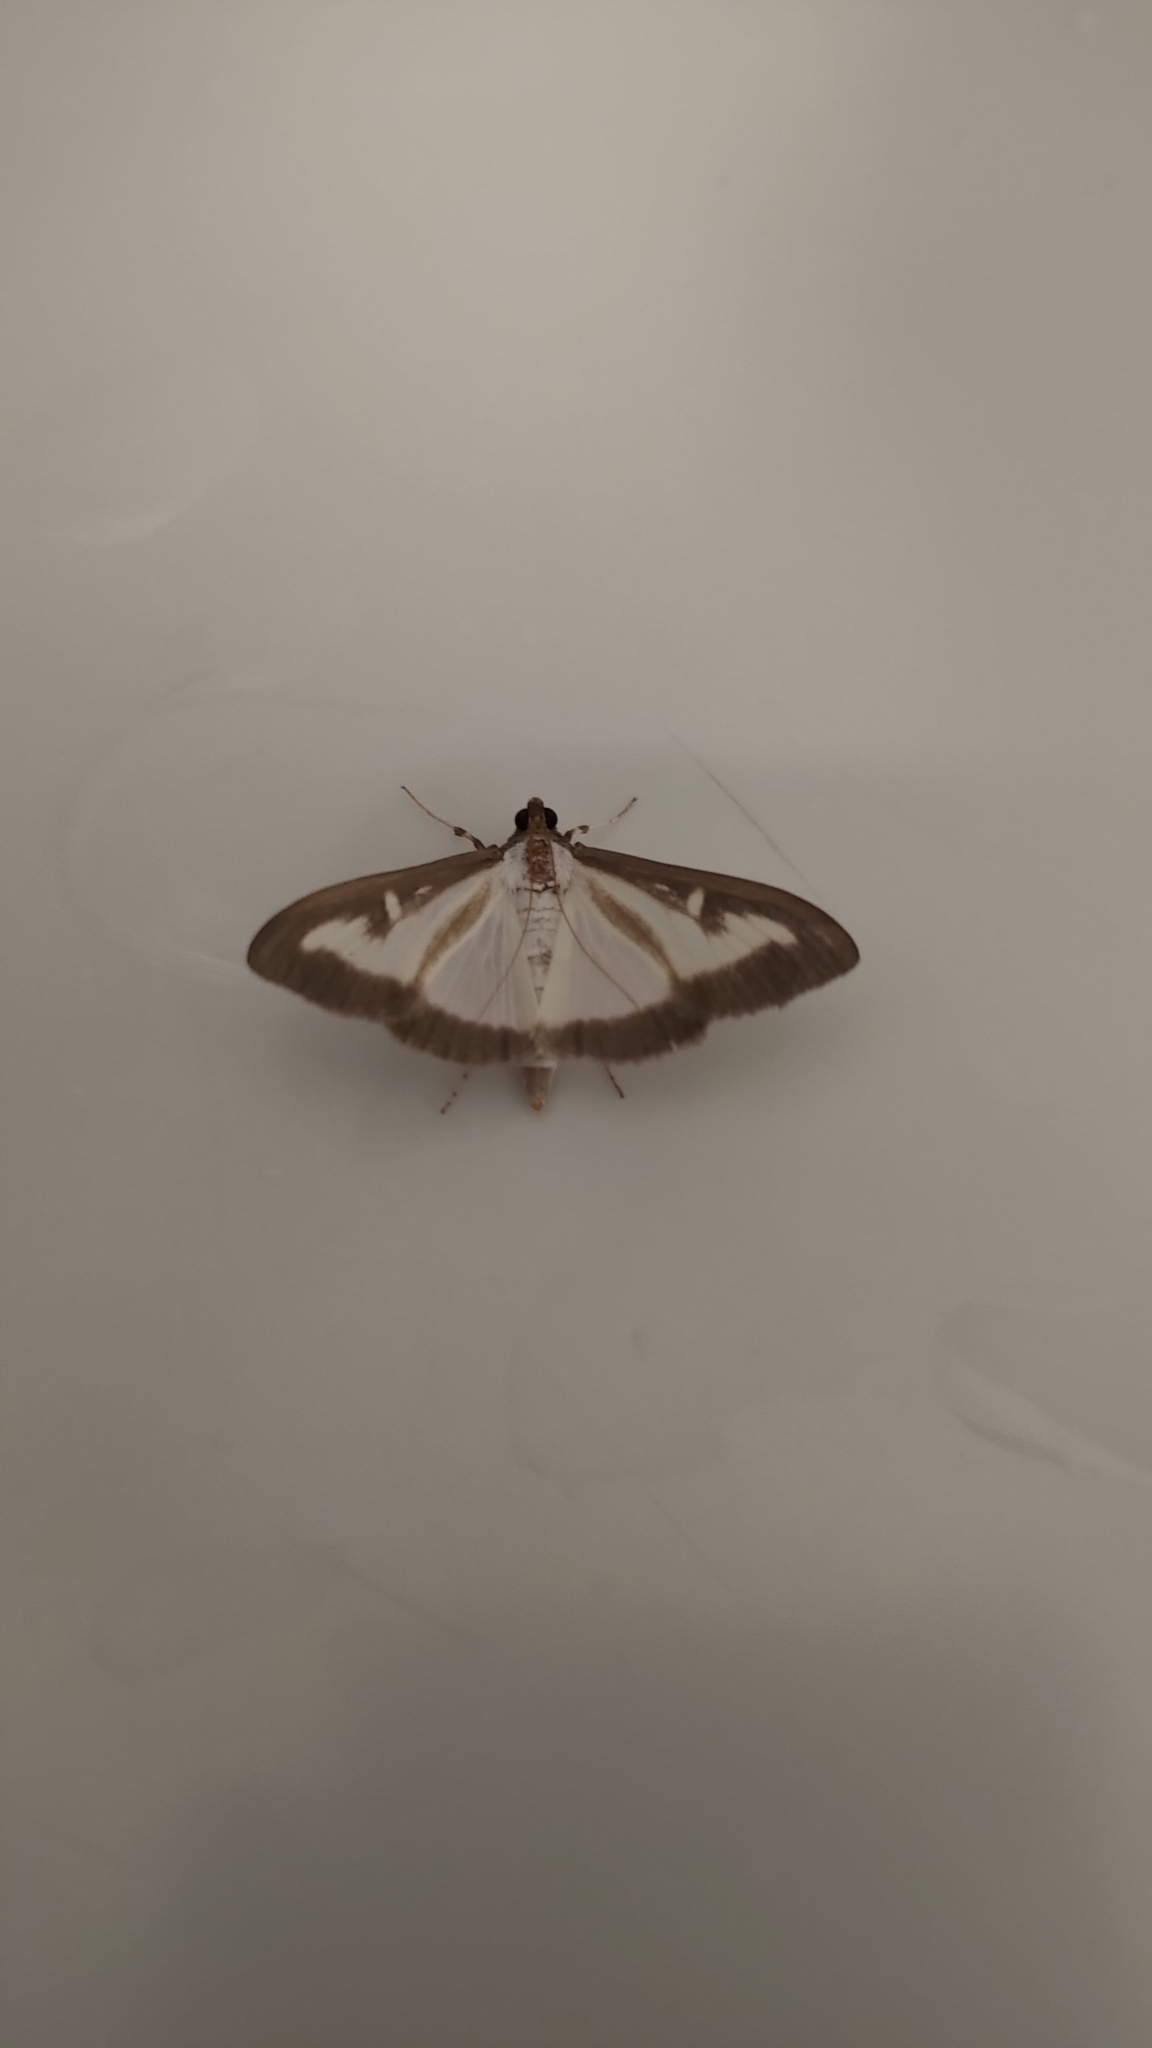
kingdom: Animalia
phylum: Arthropoda
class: Insecta
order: Lepidoptera
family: Crambidae
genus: Cydalima
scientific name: Cydalima perspectalis
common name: Box tree moth
